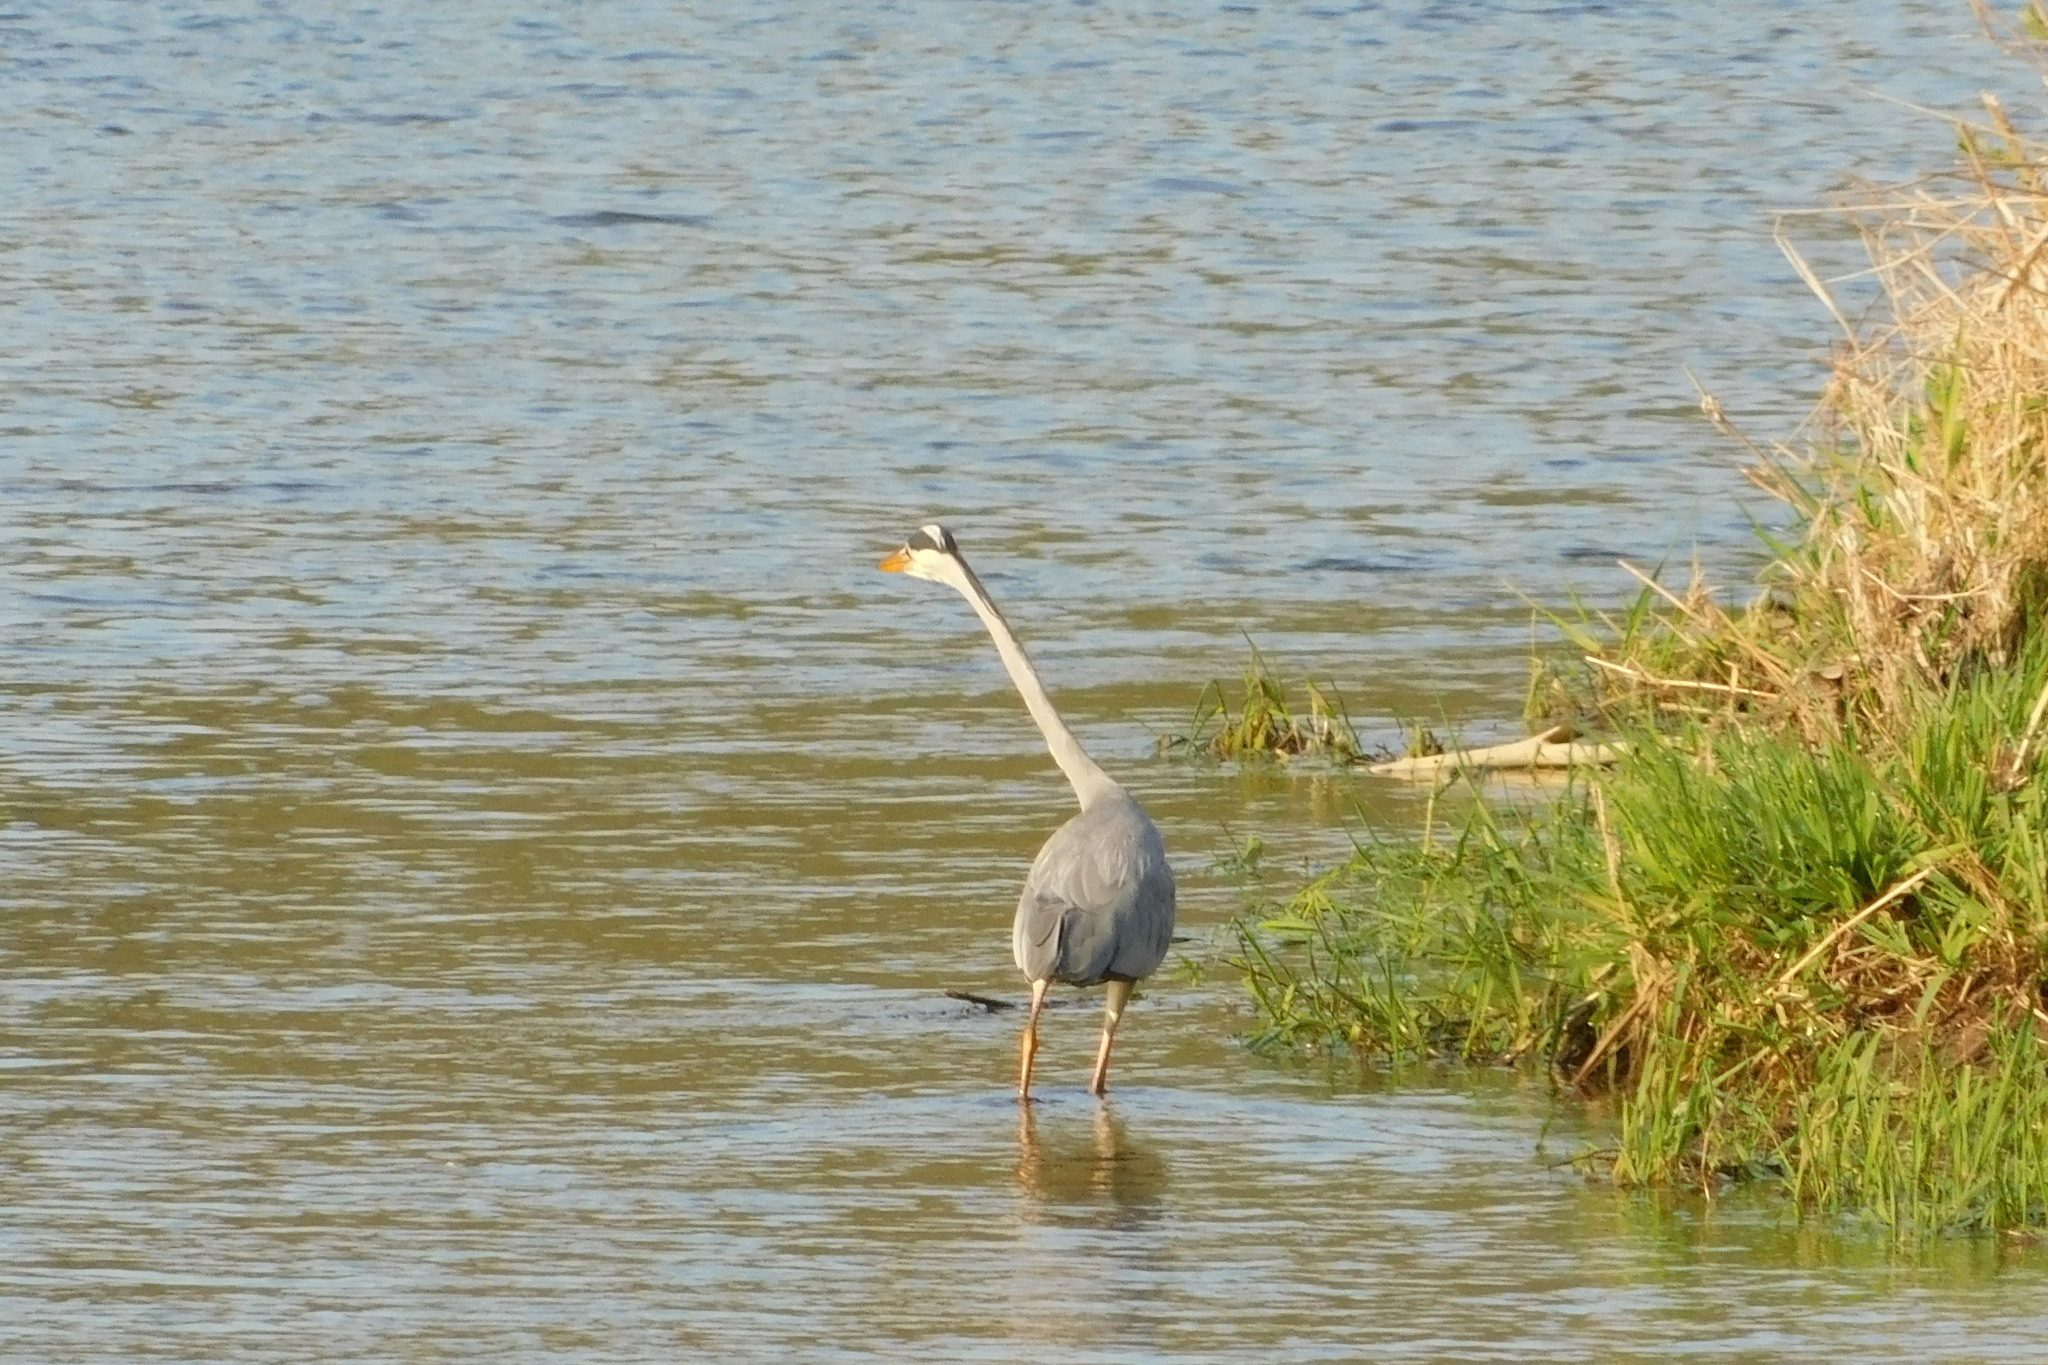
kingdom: Animalia
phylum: Chordata
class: Aves
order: Pelecaniformes
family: Ardeidae
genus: Ardea
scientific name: Ardea cinerea
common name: Grey heron
